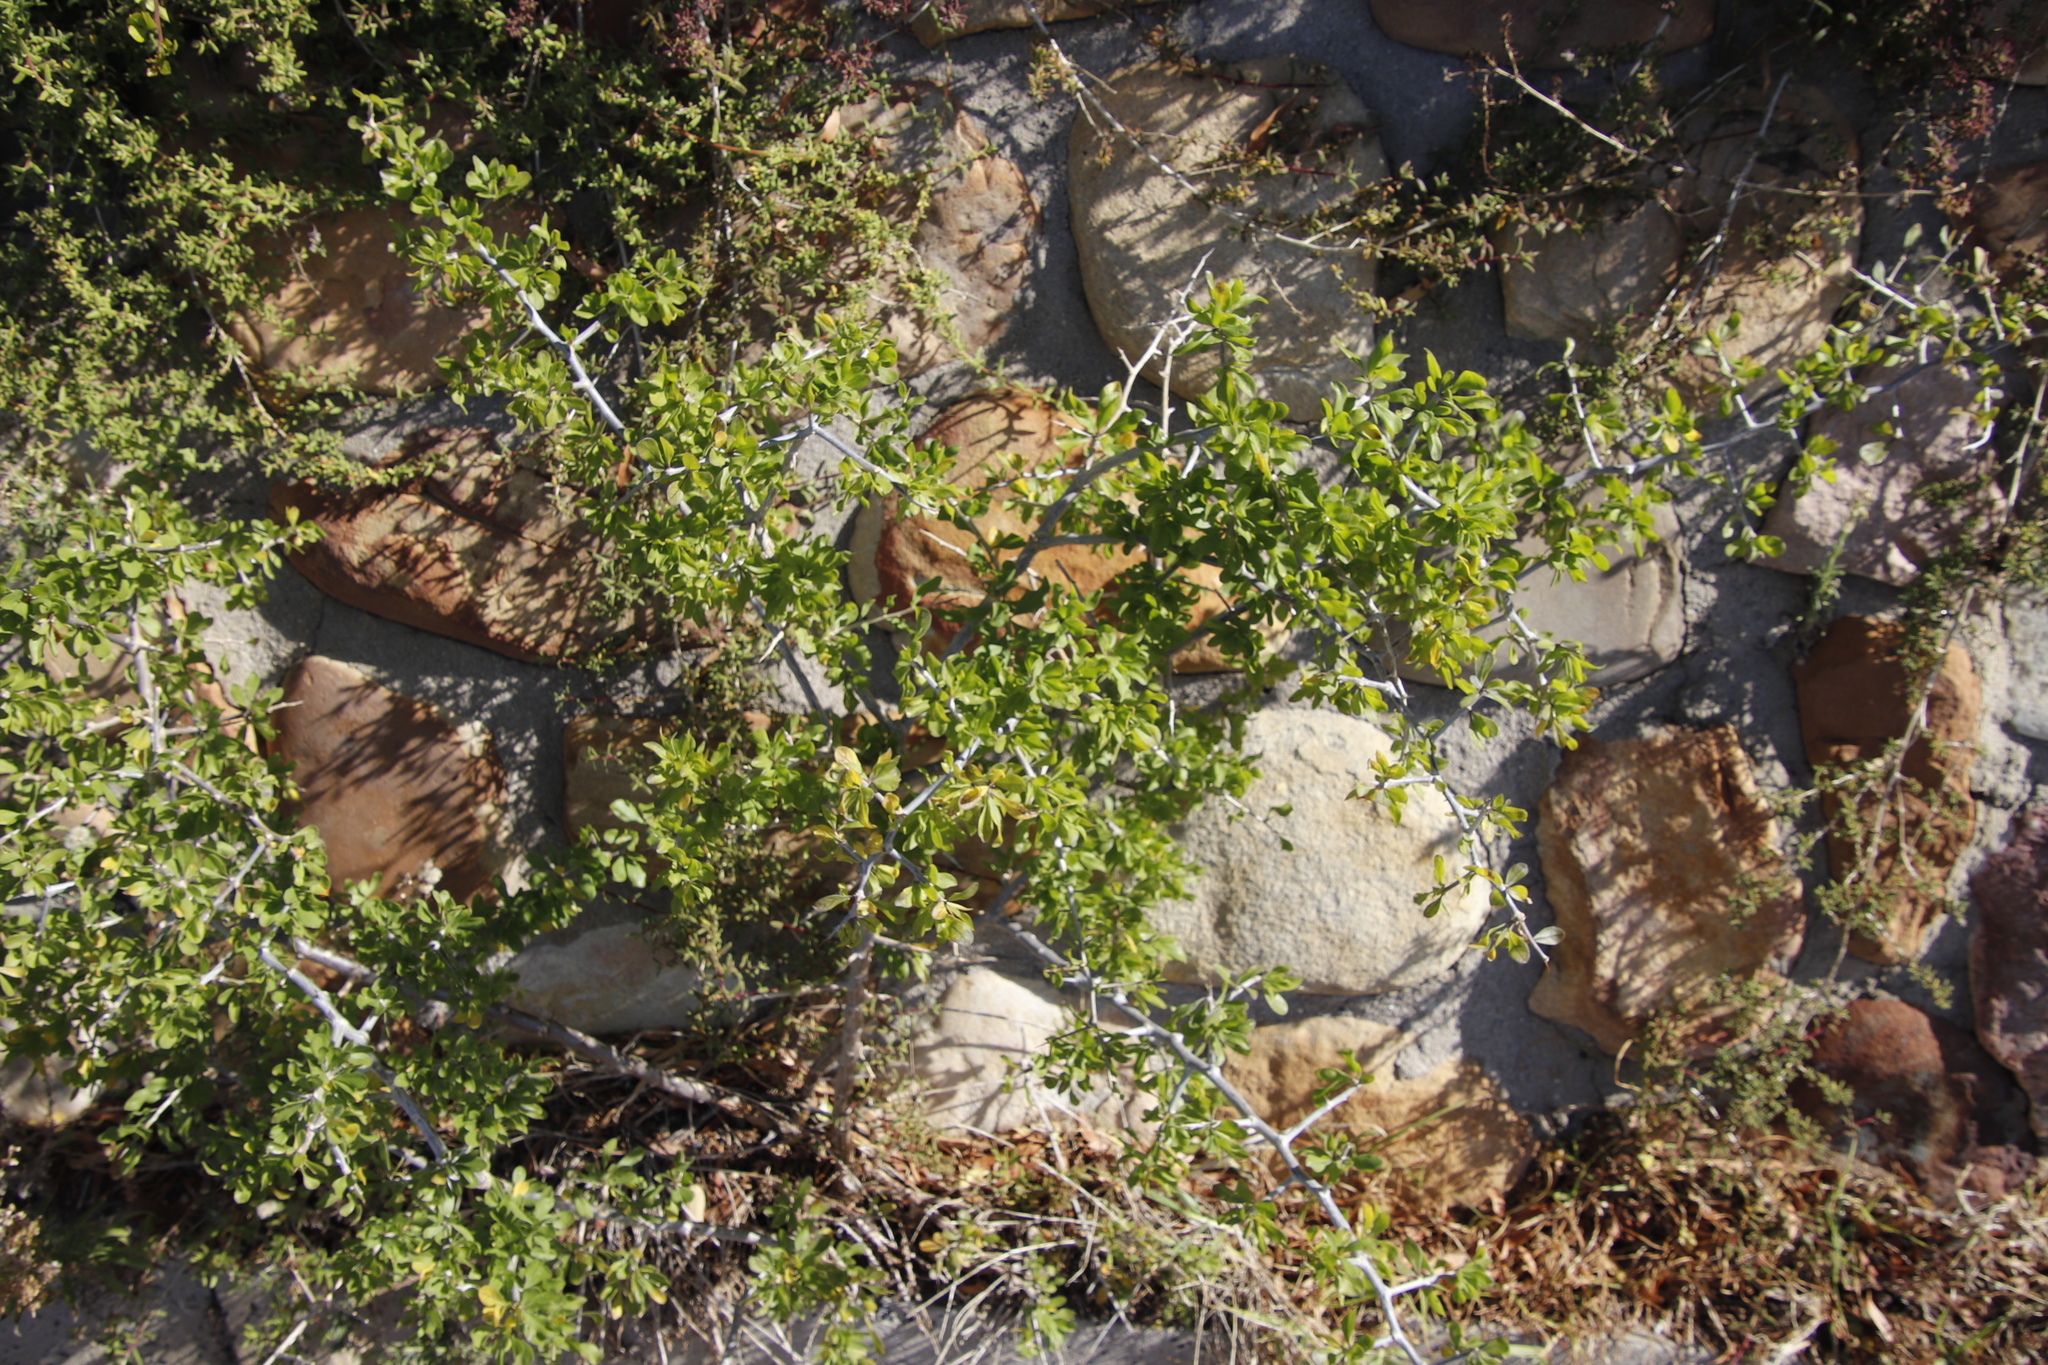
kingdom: Plantae
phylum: Tracheophyta
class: Magnoliopsida
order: Solanales
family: Solanaceae
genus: Lycium
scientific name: Lycium ferocissimum
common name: African boxthorn
